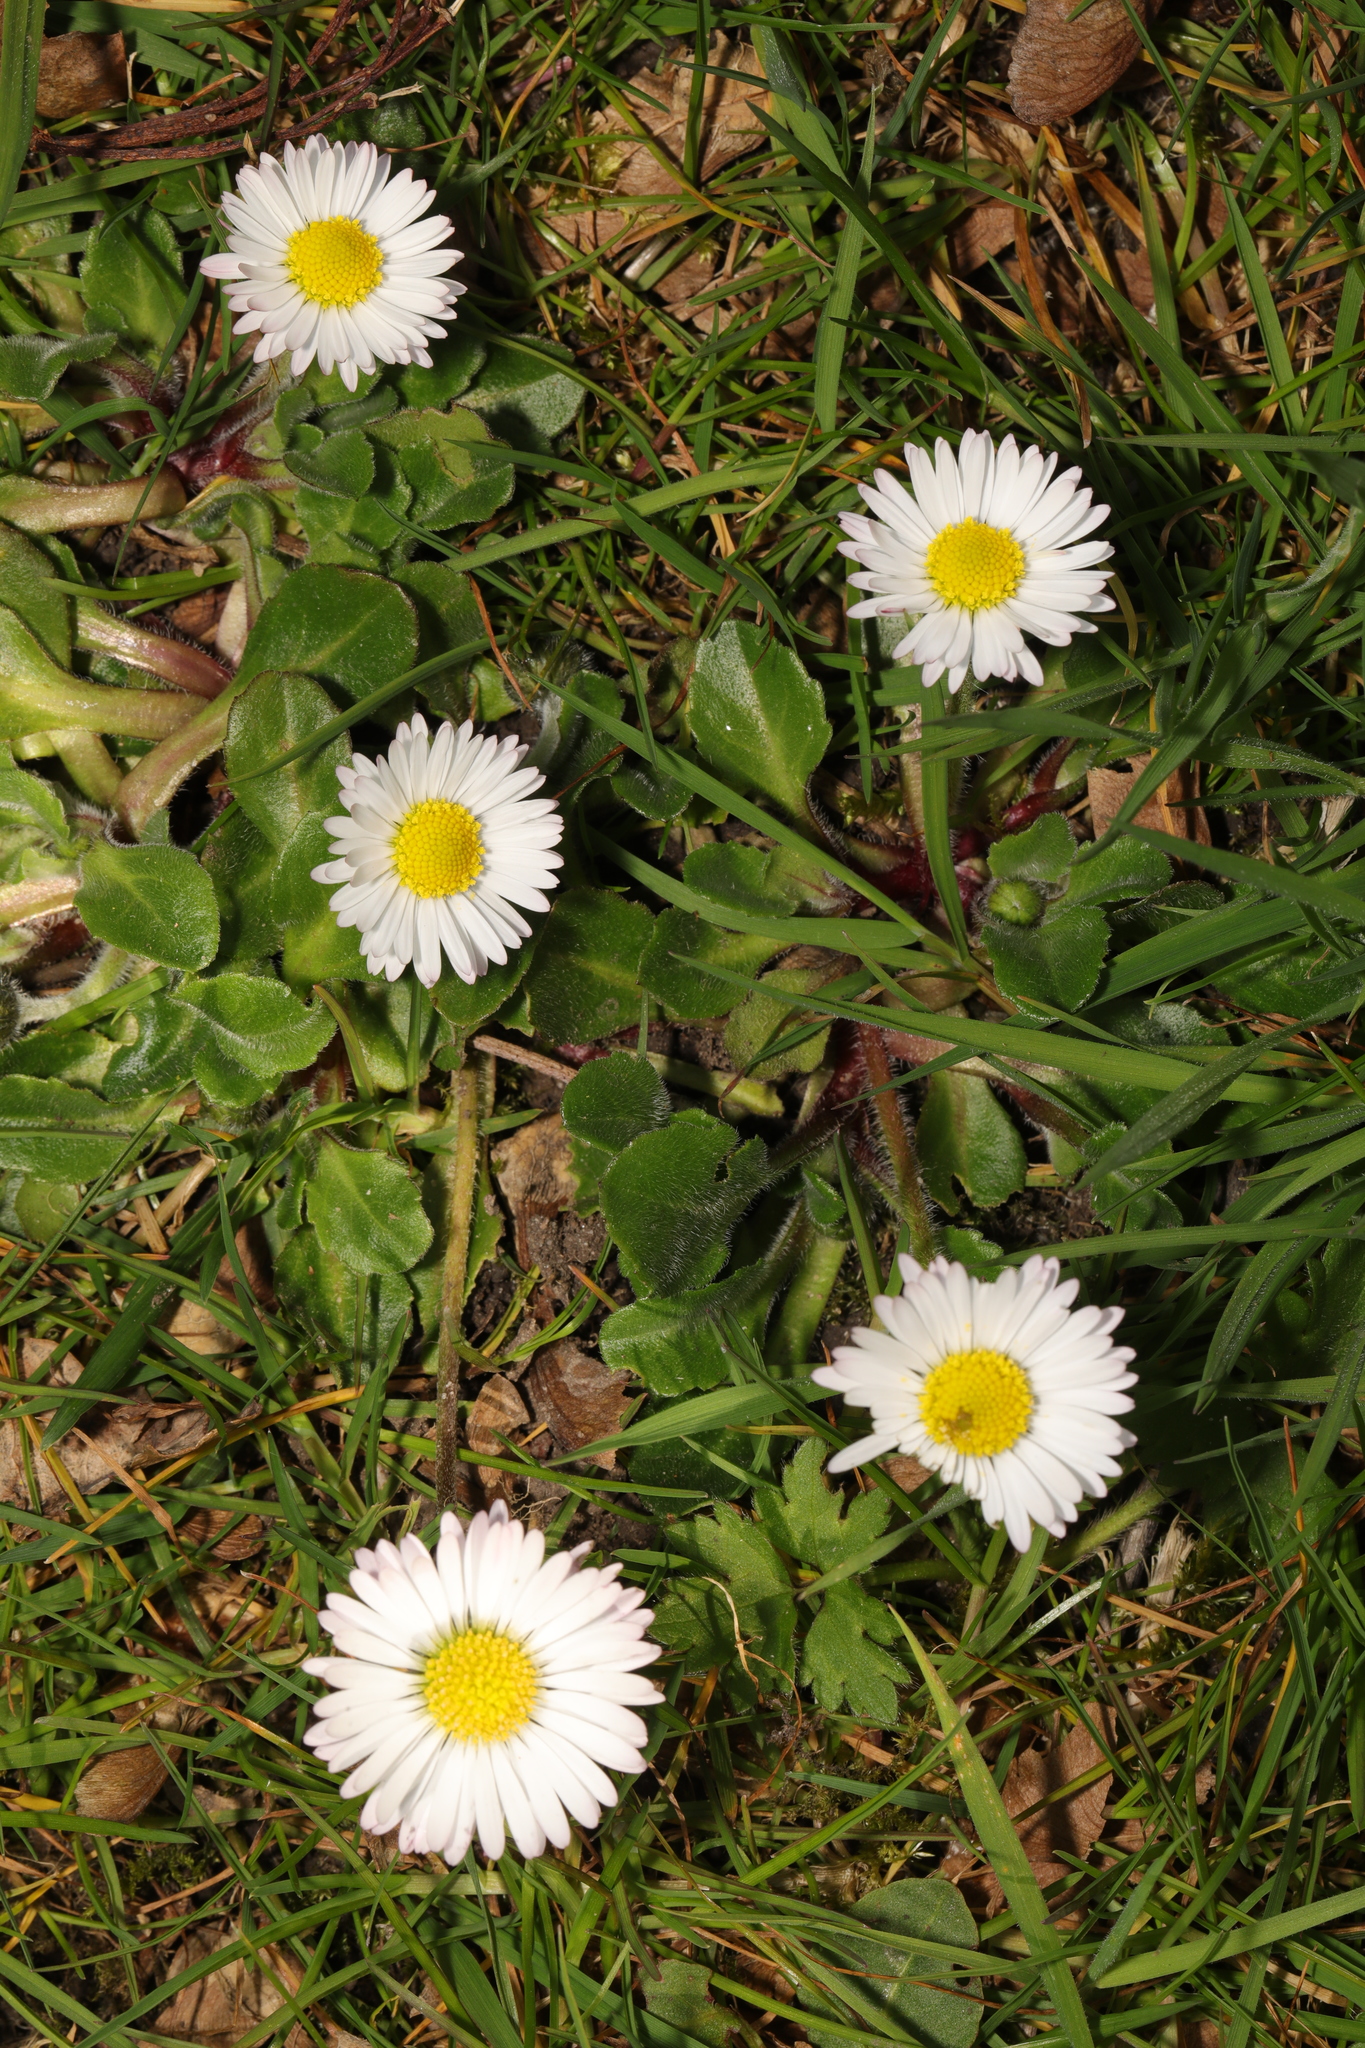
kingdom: Plantae
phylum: Tracheophyta
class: Magnoliopsida
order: Asterales
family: Asteraceae
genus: Bellis
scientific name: Bellis perennis
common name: Lawndaisy
